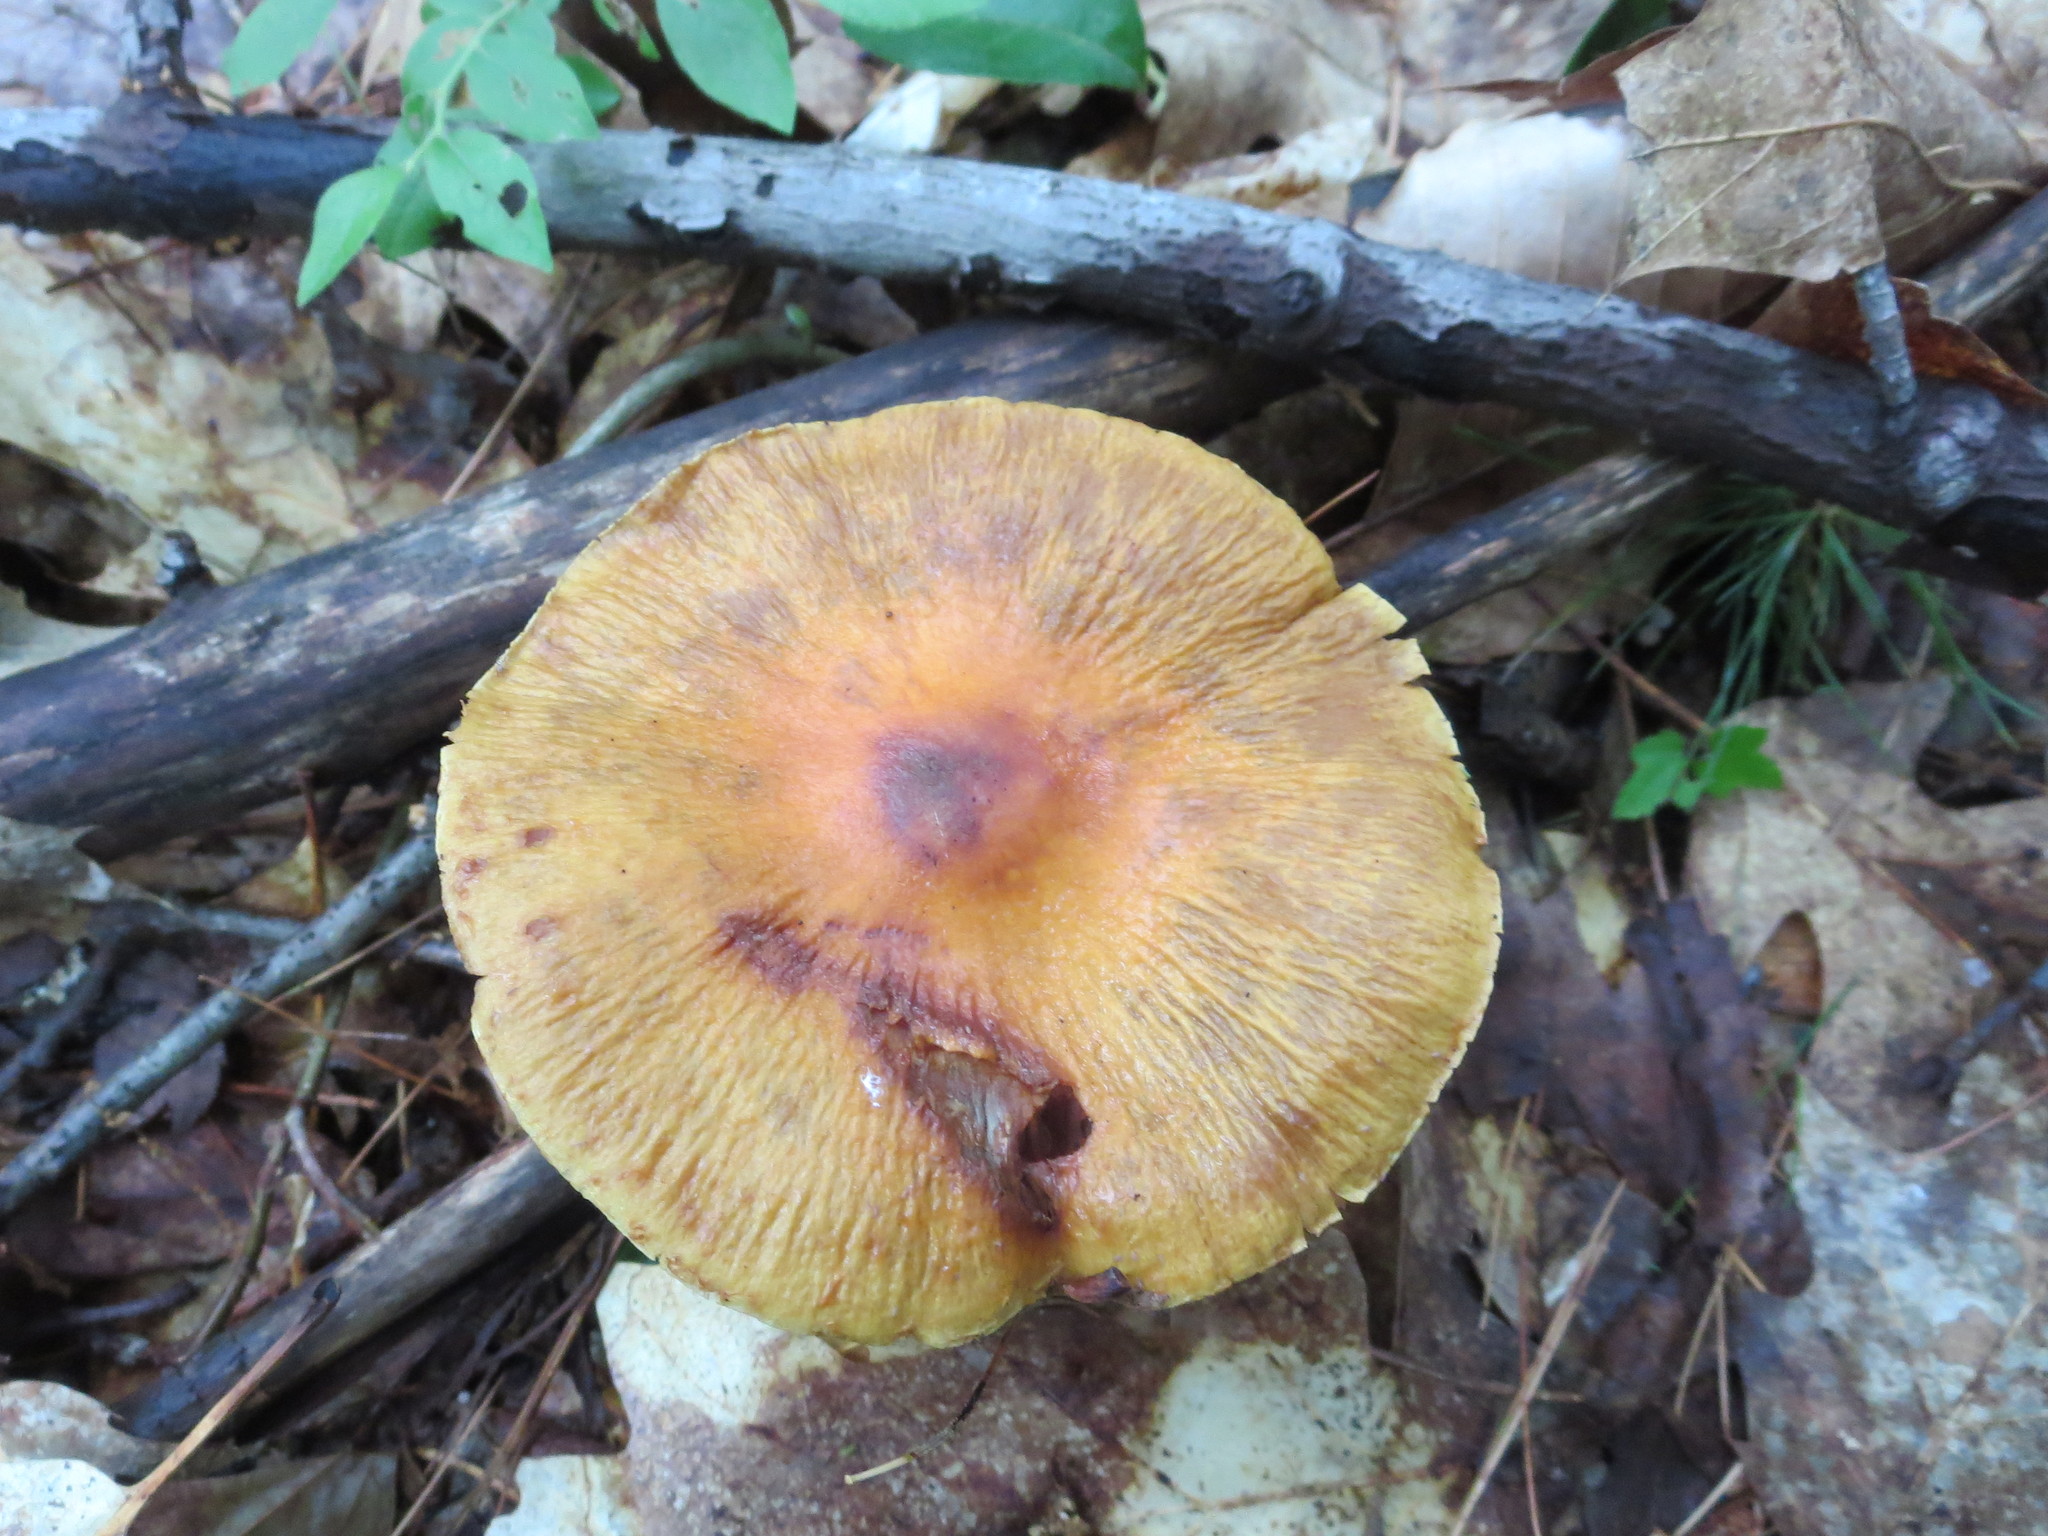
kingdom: Fungi
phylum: Basidiomycota
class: Agaricomycetes
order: Agaricales
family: Cortinariaceae
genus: Cortinarius
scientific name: Cortinarius corrugatus
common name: Wrinkled cortinarius
